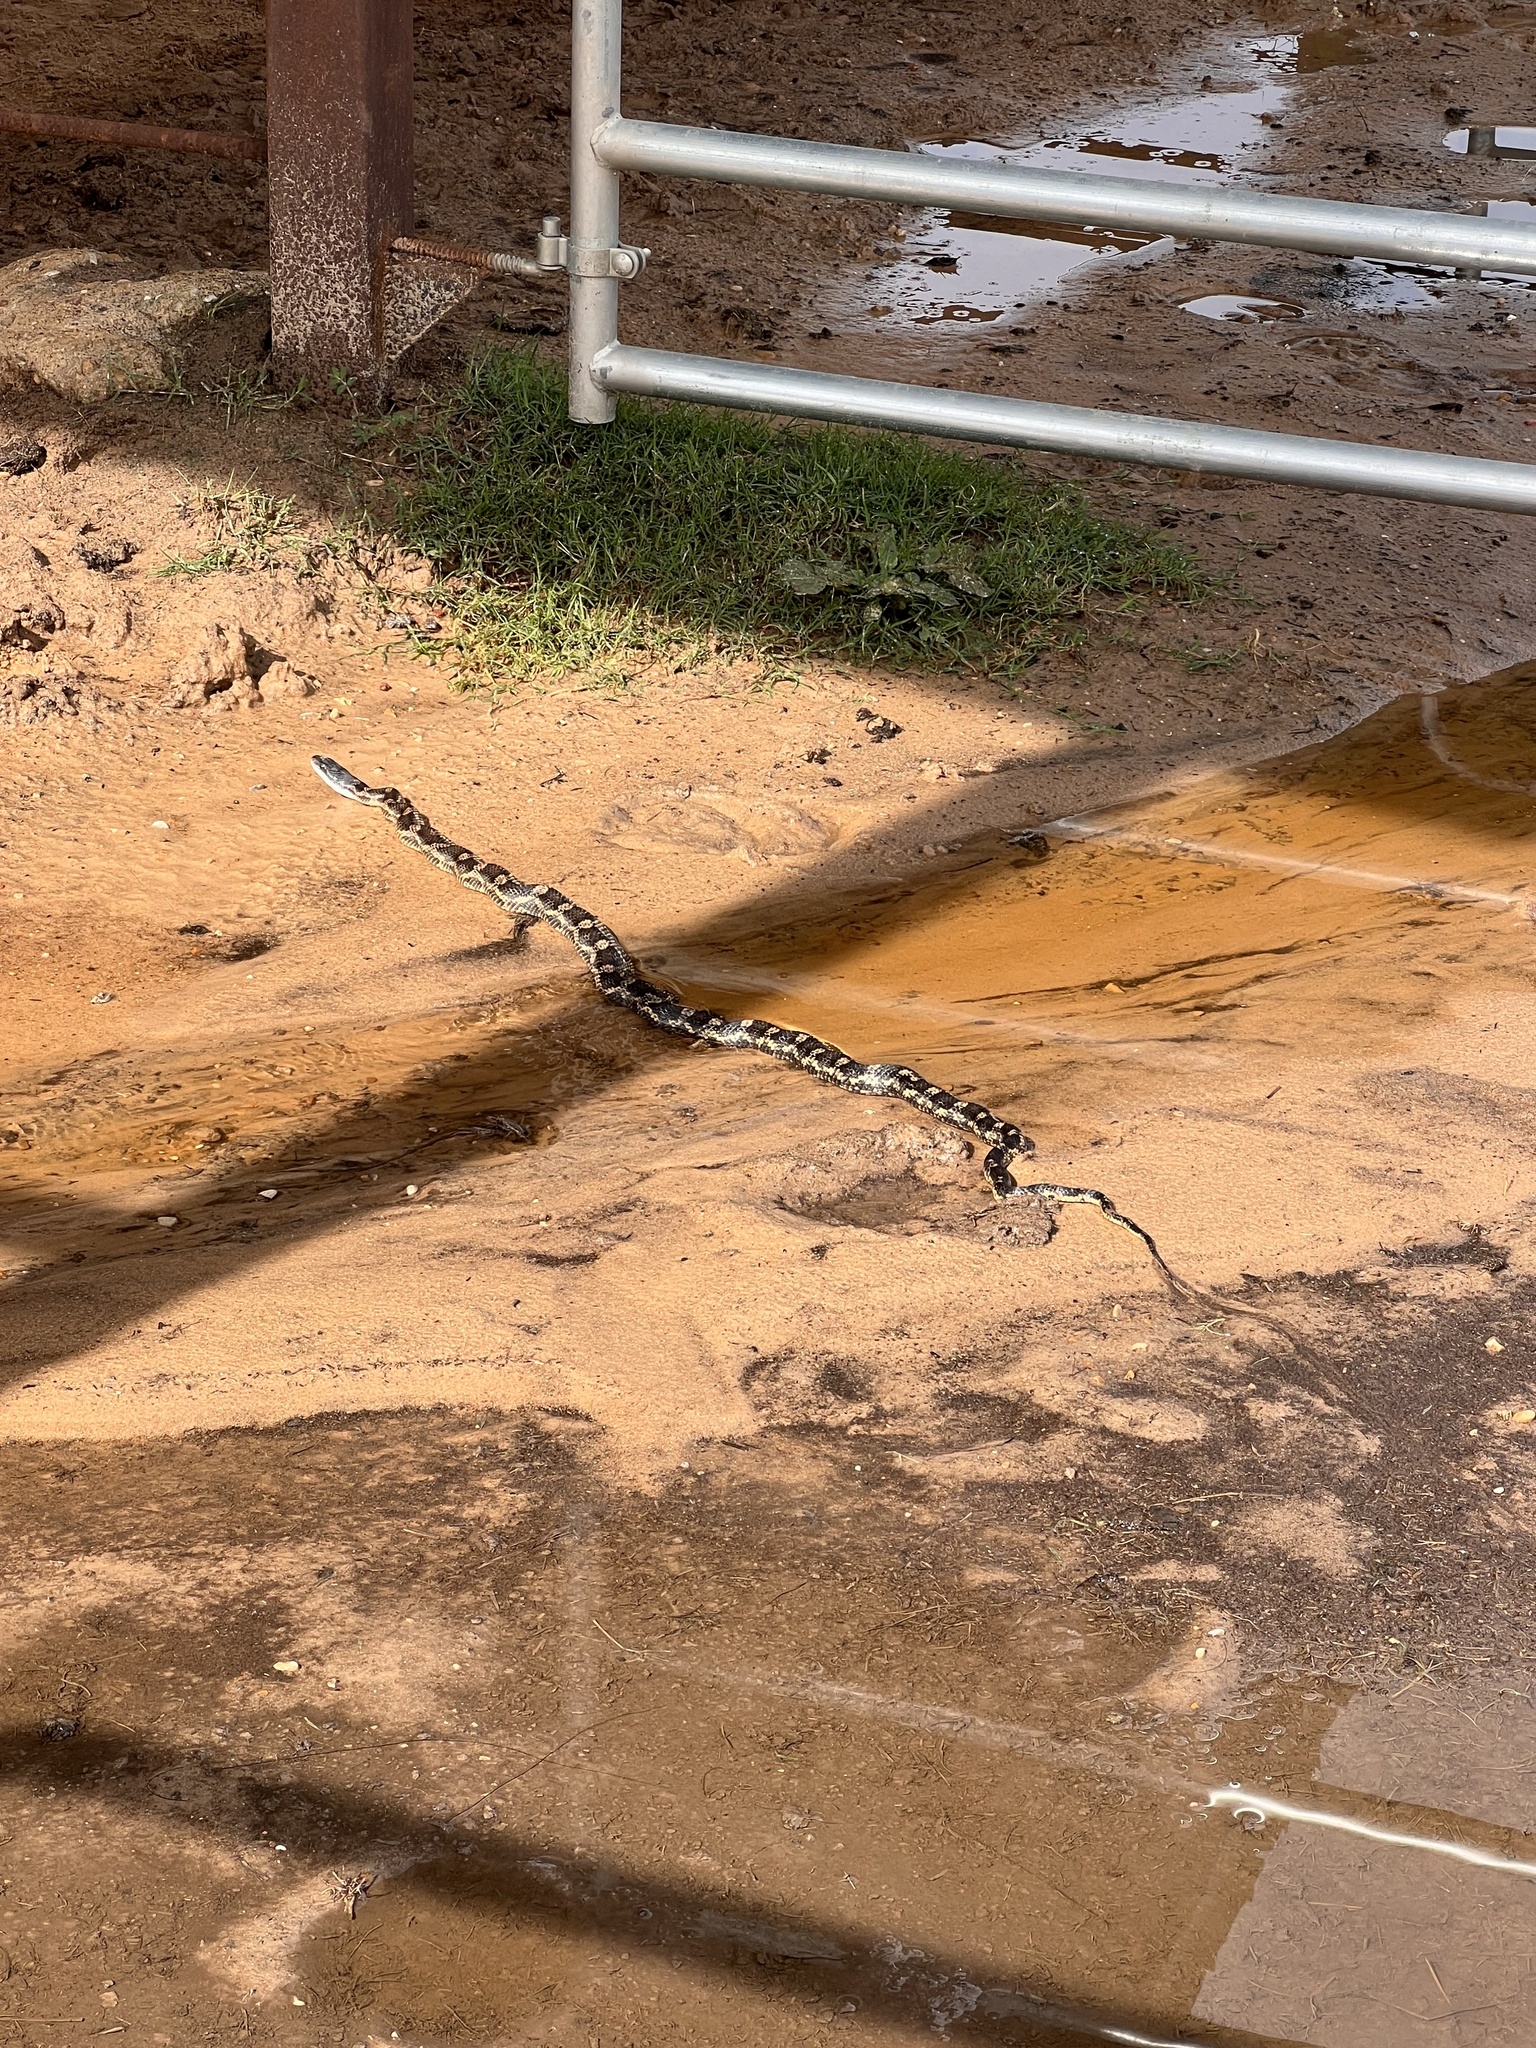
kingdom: Animalia
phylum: Chordata
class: Squamata
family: Colubridae
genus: Pantherophis
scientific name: Pantherophis obsoletus
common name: Black rat snake
